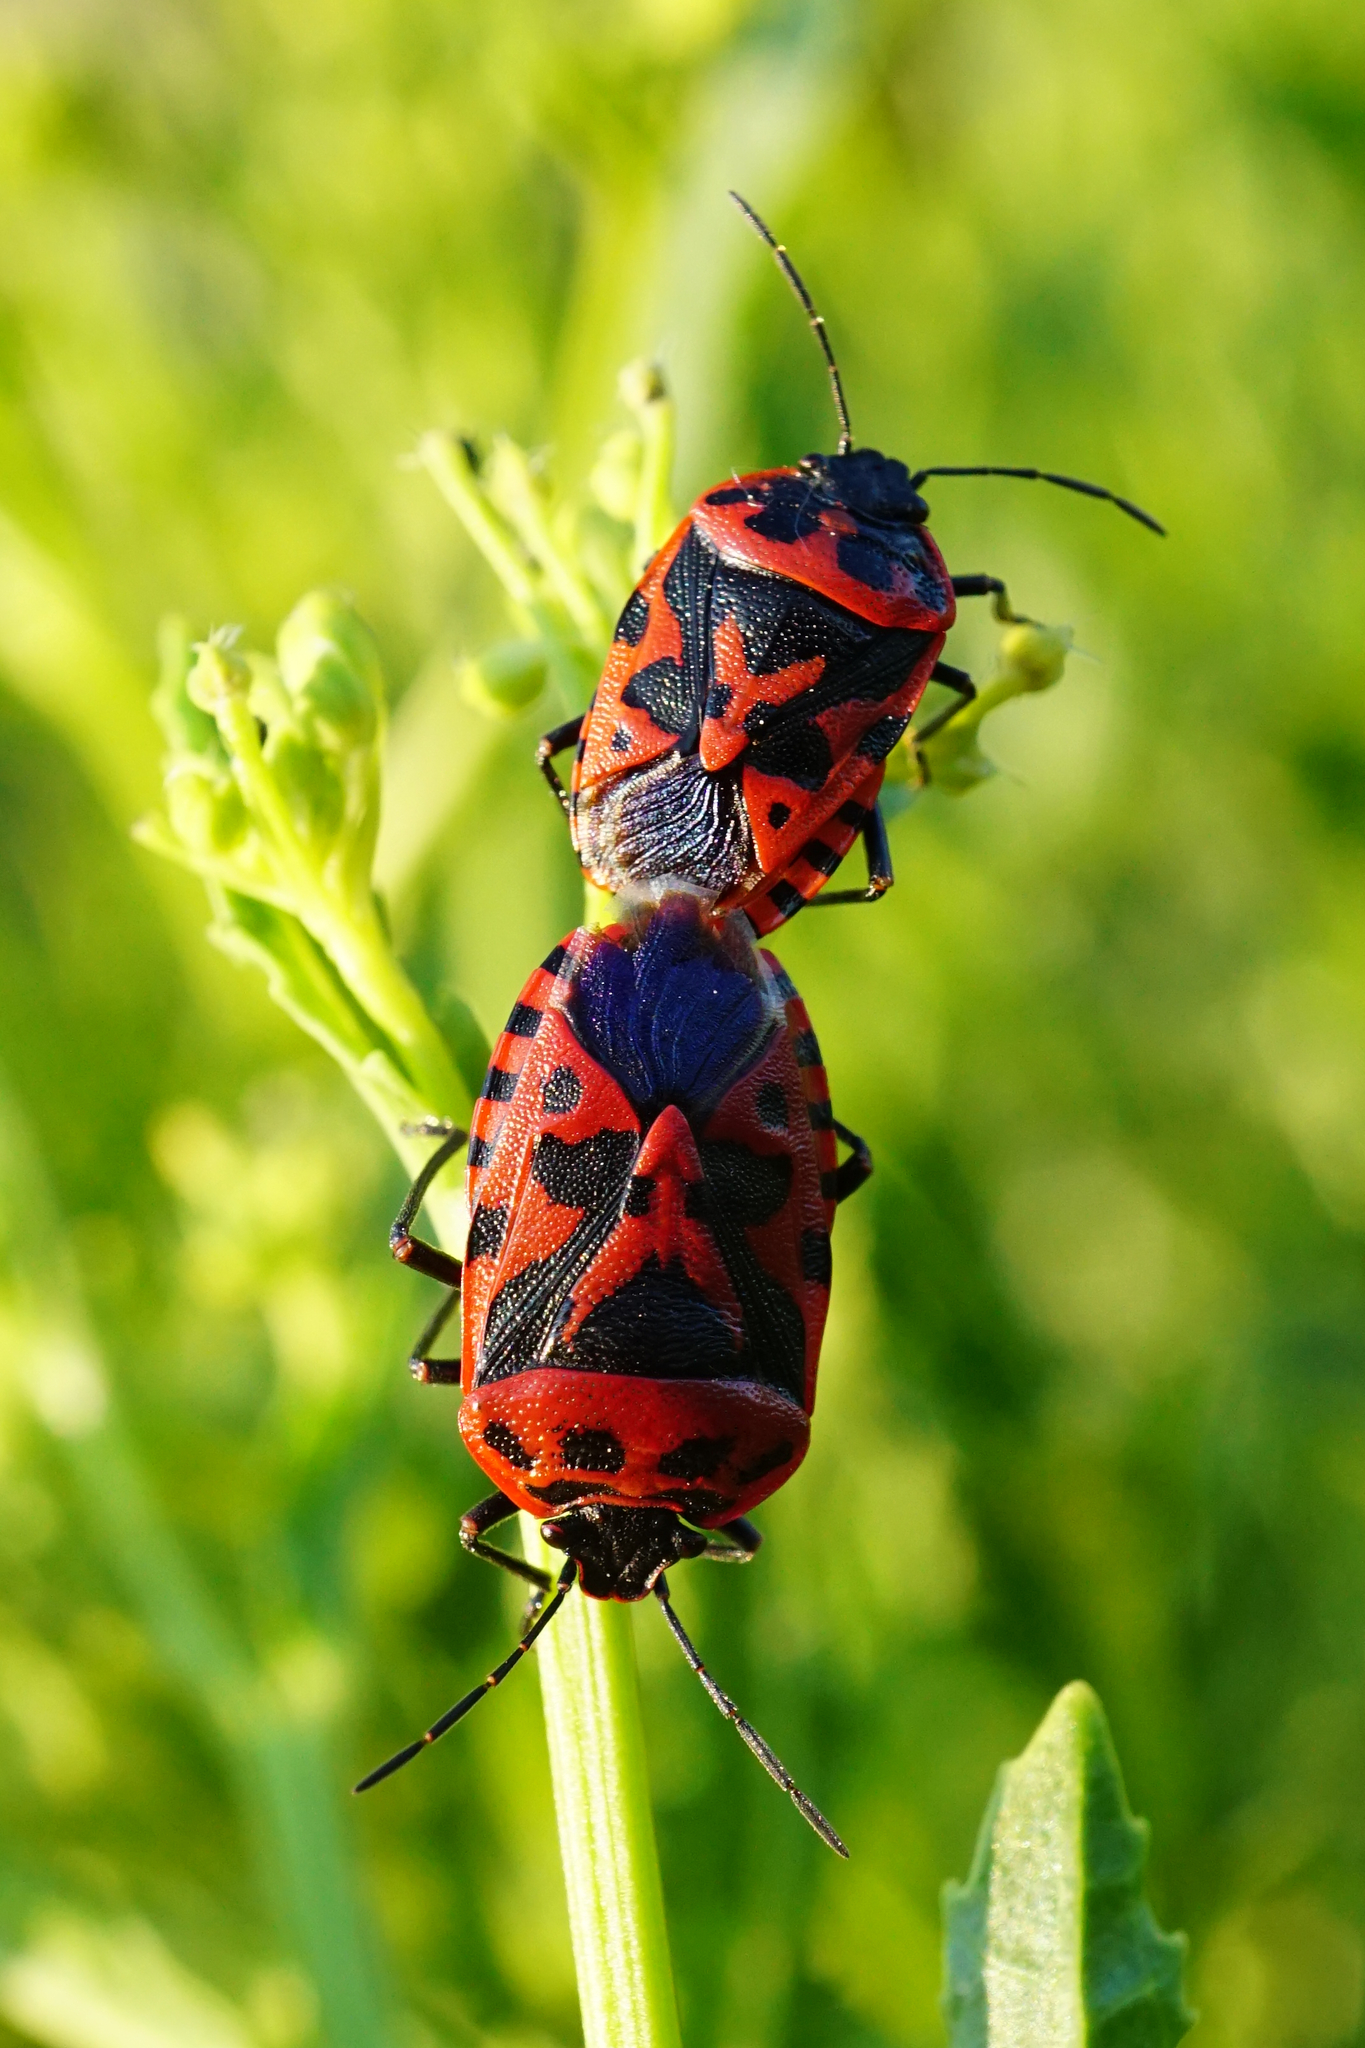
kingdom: Animalia
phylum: Arthropoda
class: Insecta
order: Hemiptera
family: Pentatomidae
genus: Eurydema
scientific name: Eurydema ventralis
